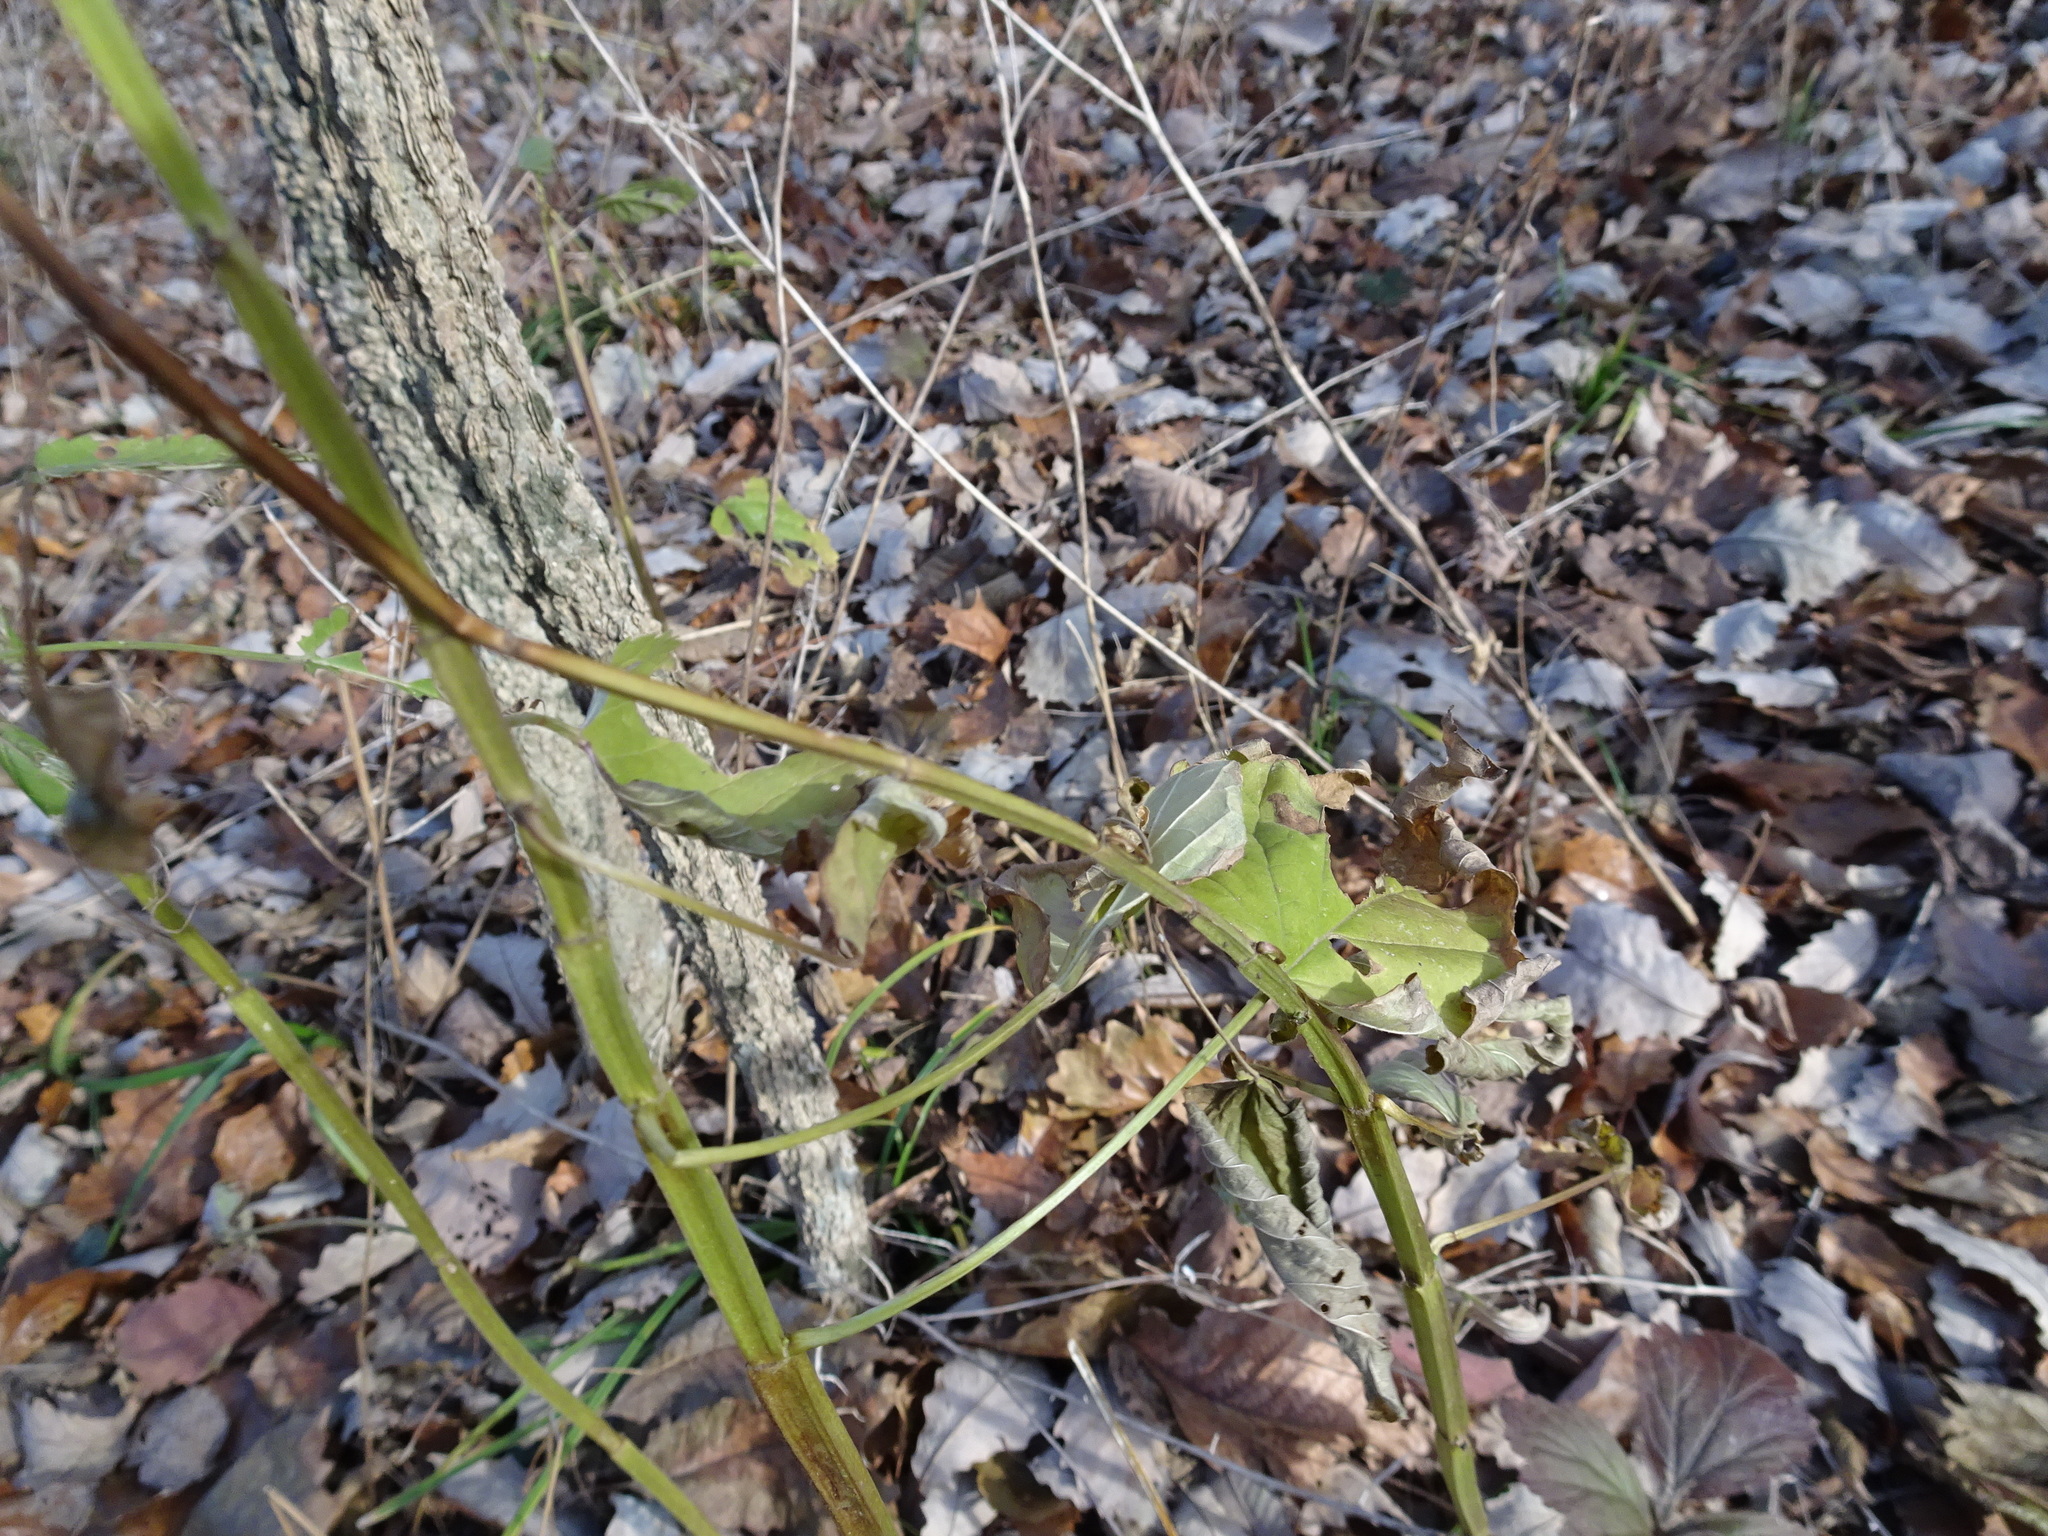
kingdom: Plantae
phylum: Tracheophyta
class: Magnoliopsida
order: Lamiales
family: Lamiaceae
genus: Agastache
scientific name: Agastache nepetoides
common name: Catnip giant hyssop
